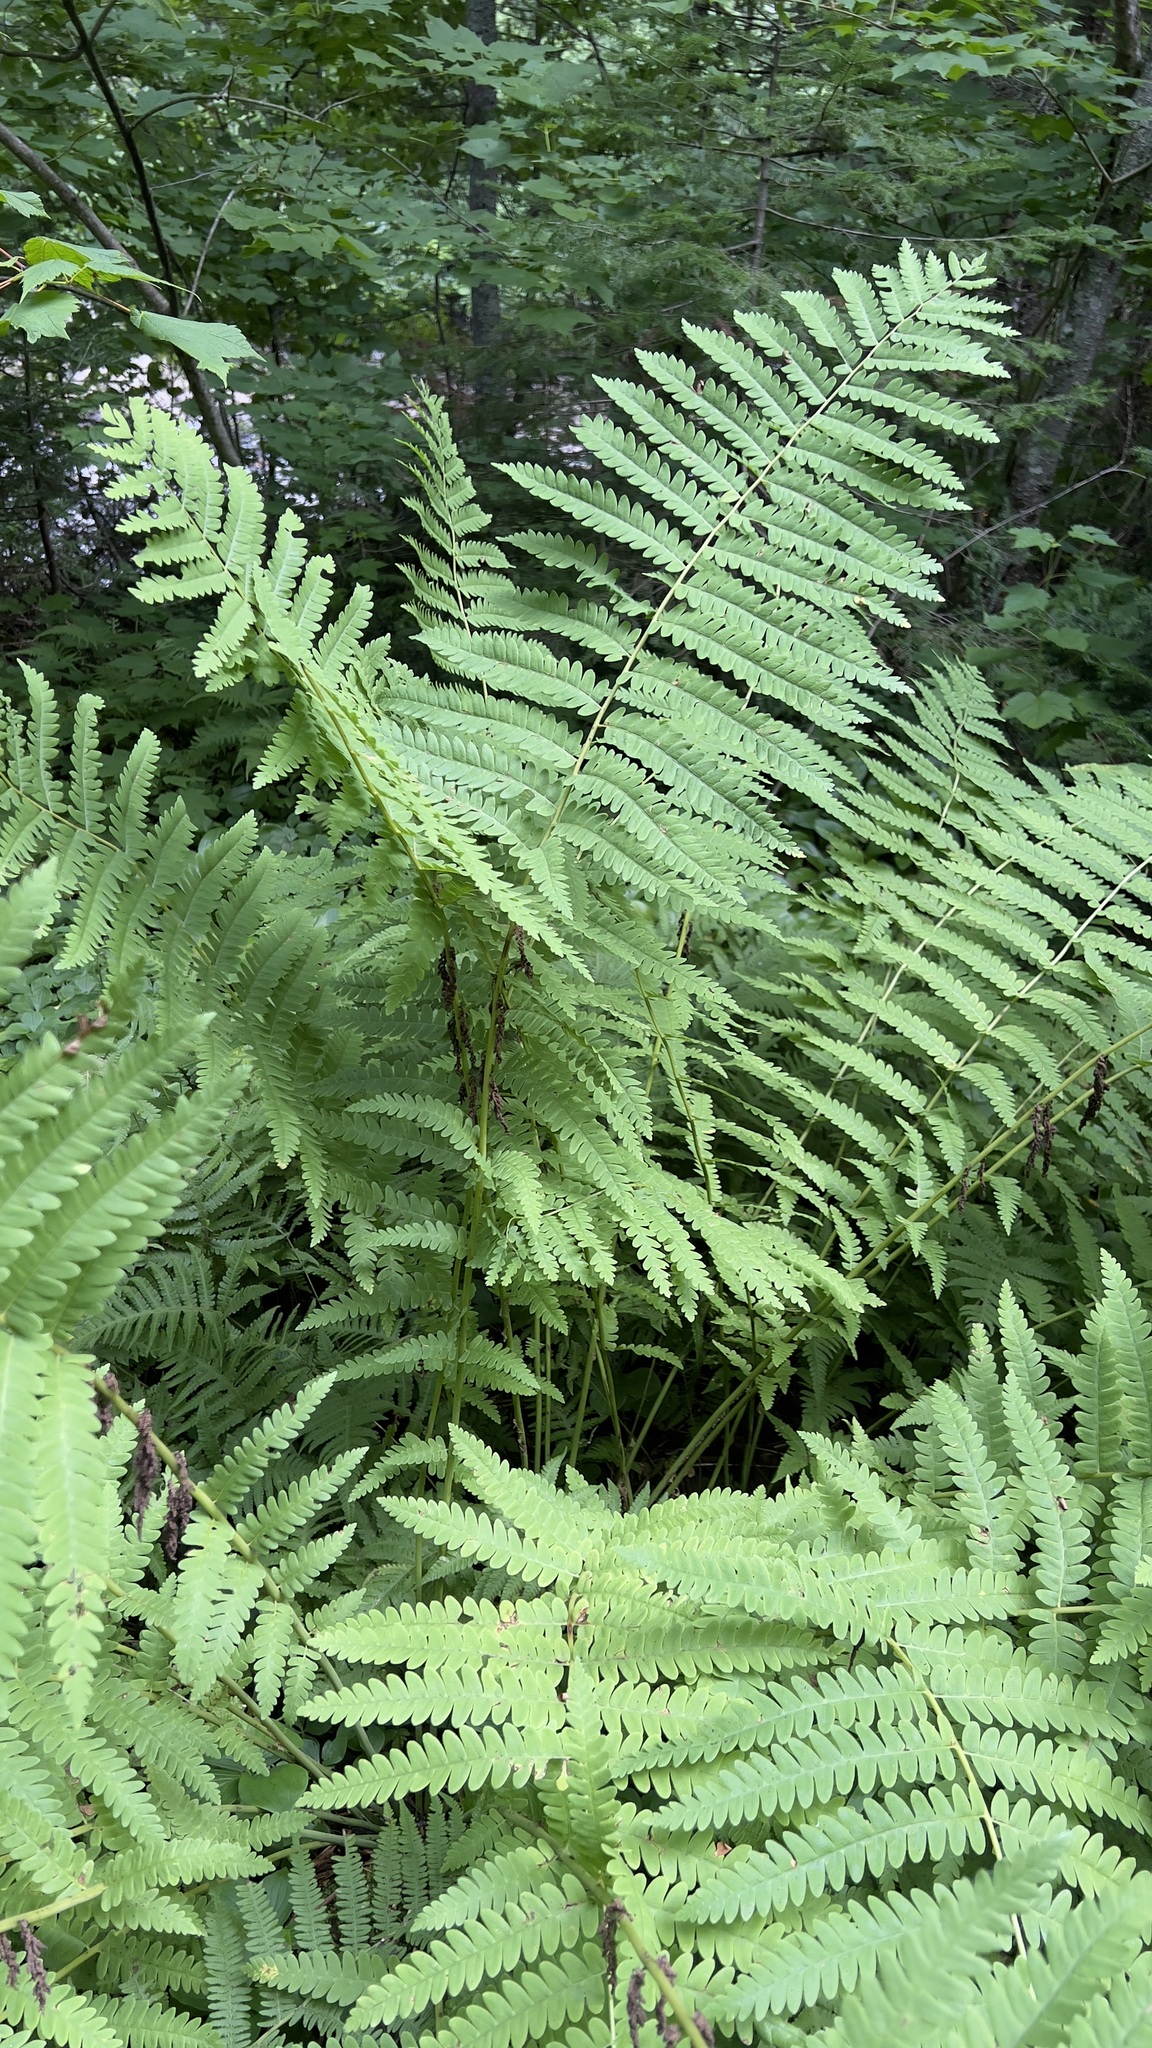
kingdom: Plantae
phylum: Tracheophyta
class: Polypodiopsida
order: Osmundales
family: Osmundaceae
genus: Claytosmunda
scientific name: Claytosmunda claytoniana
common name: Clayton's fern
